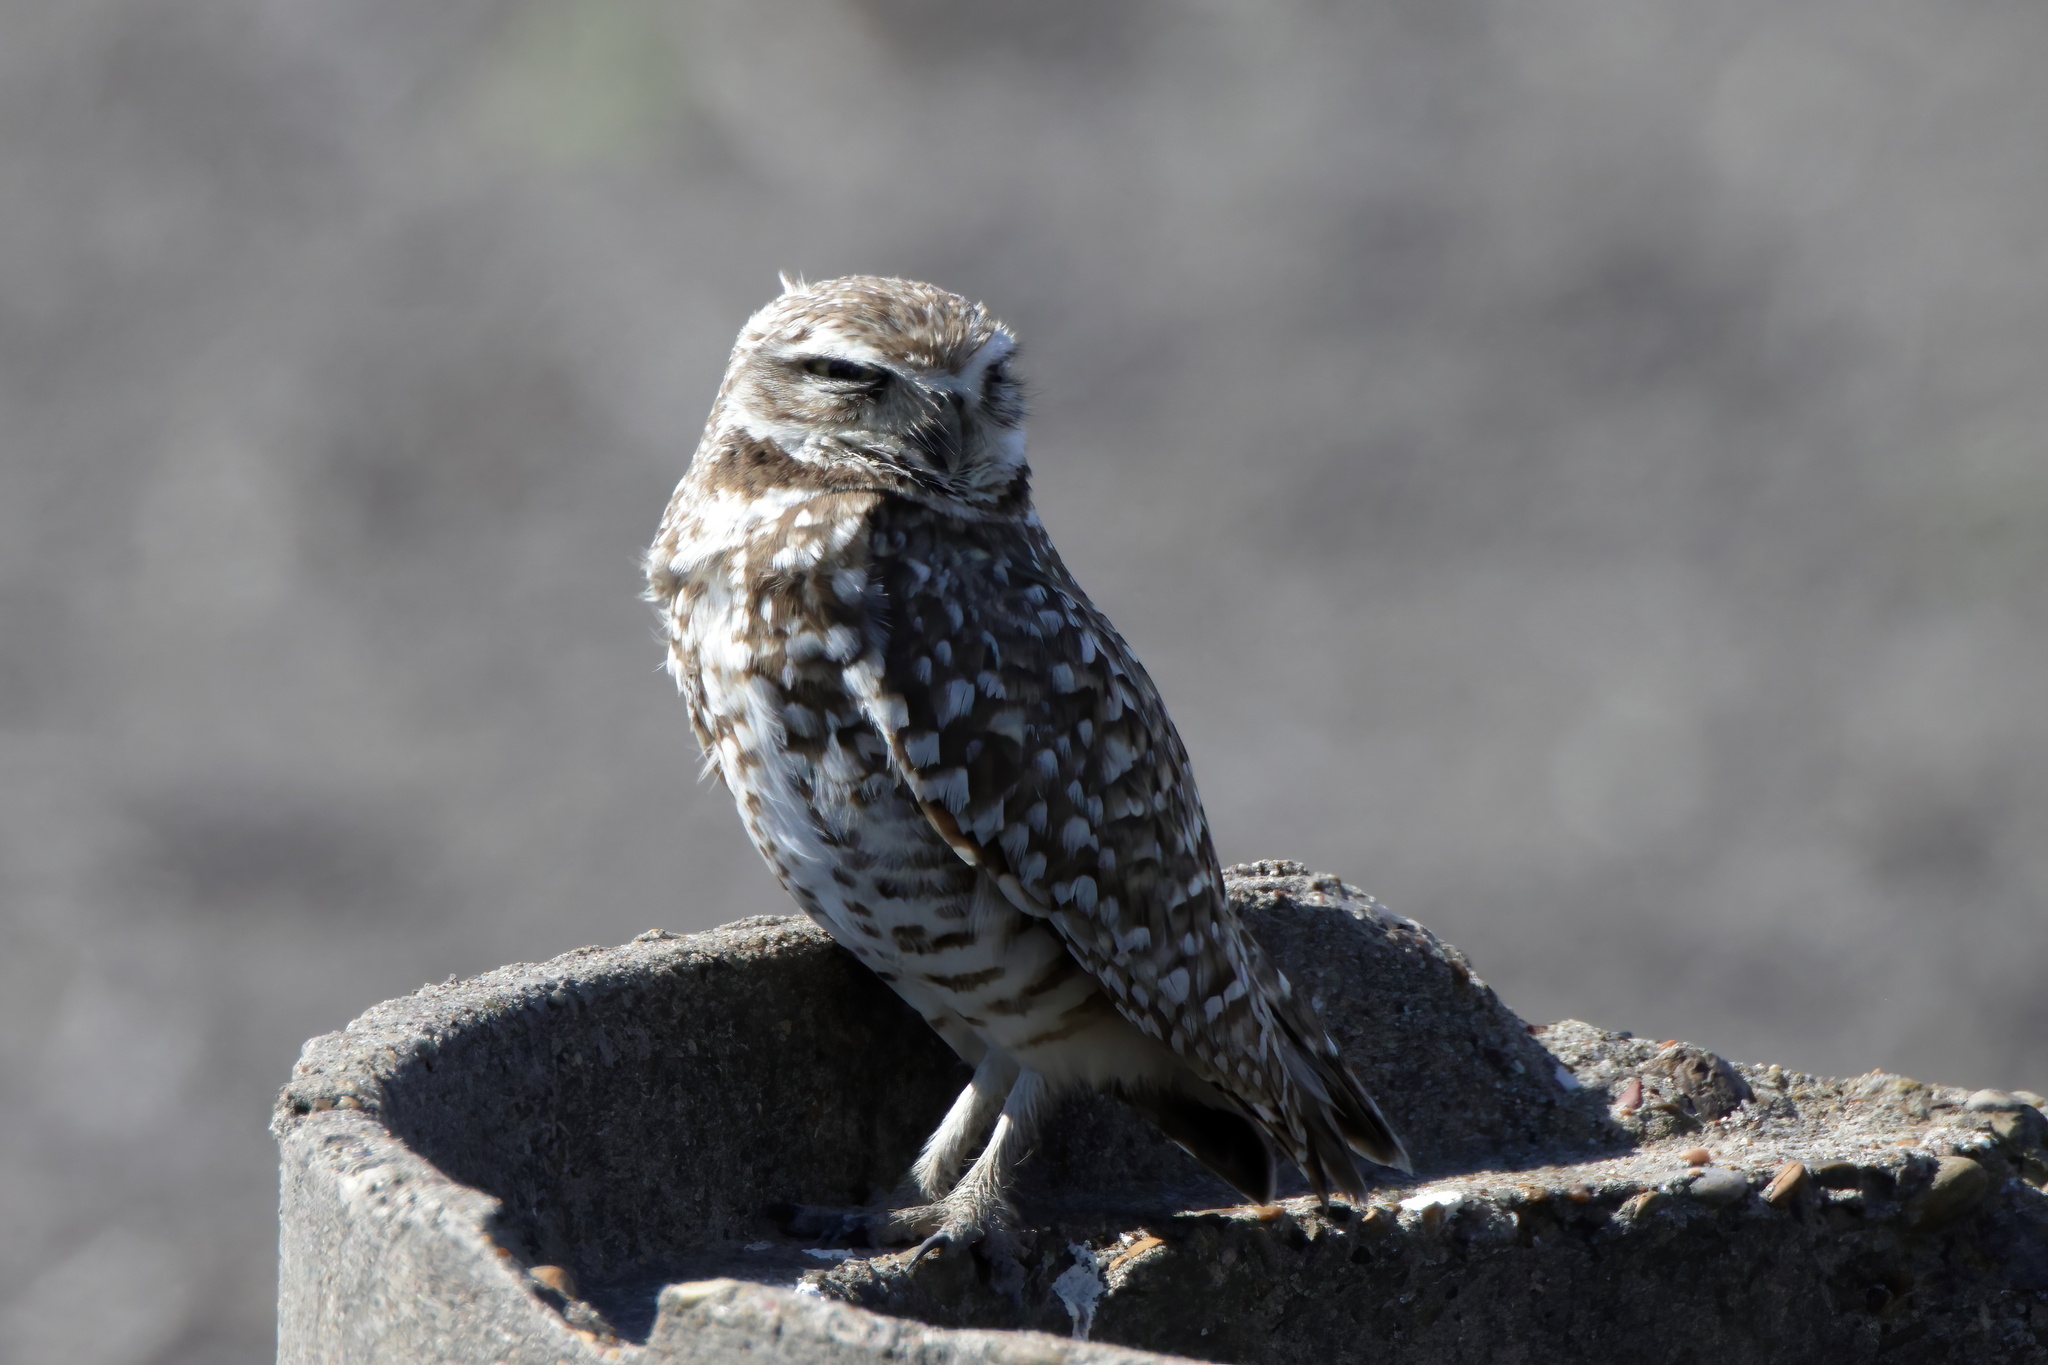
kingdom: Animalia
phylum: Chordata
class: Aves
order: Strigiformes
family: Strigidae
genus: Athene
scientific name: Athene cunicularia
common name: Burrowing owl
